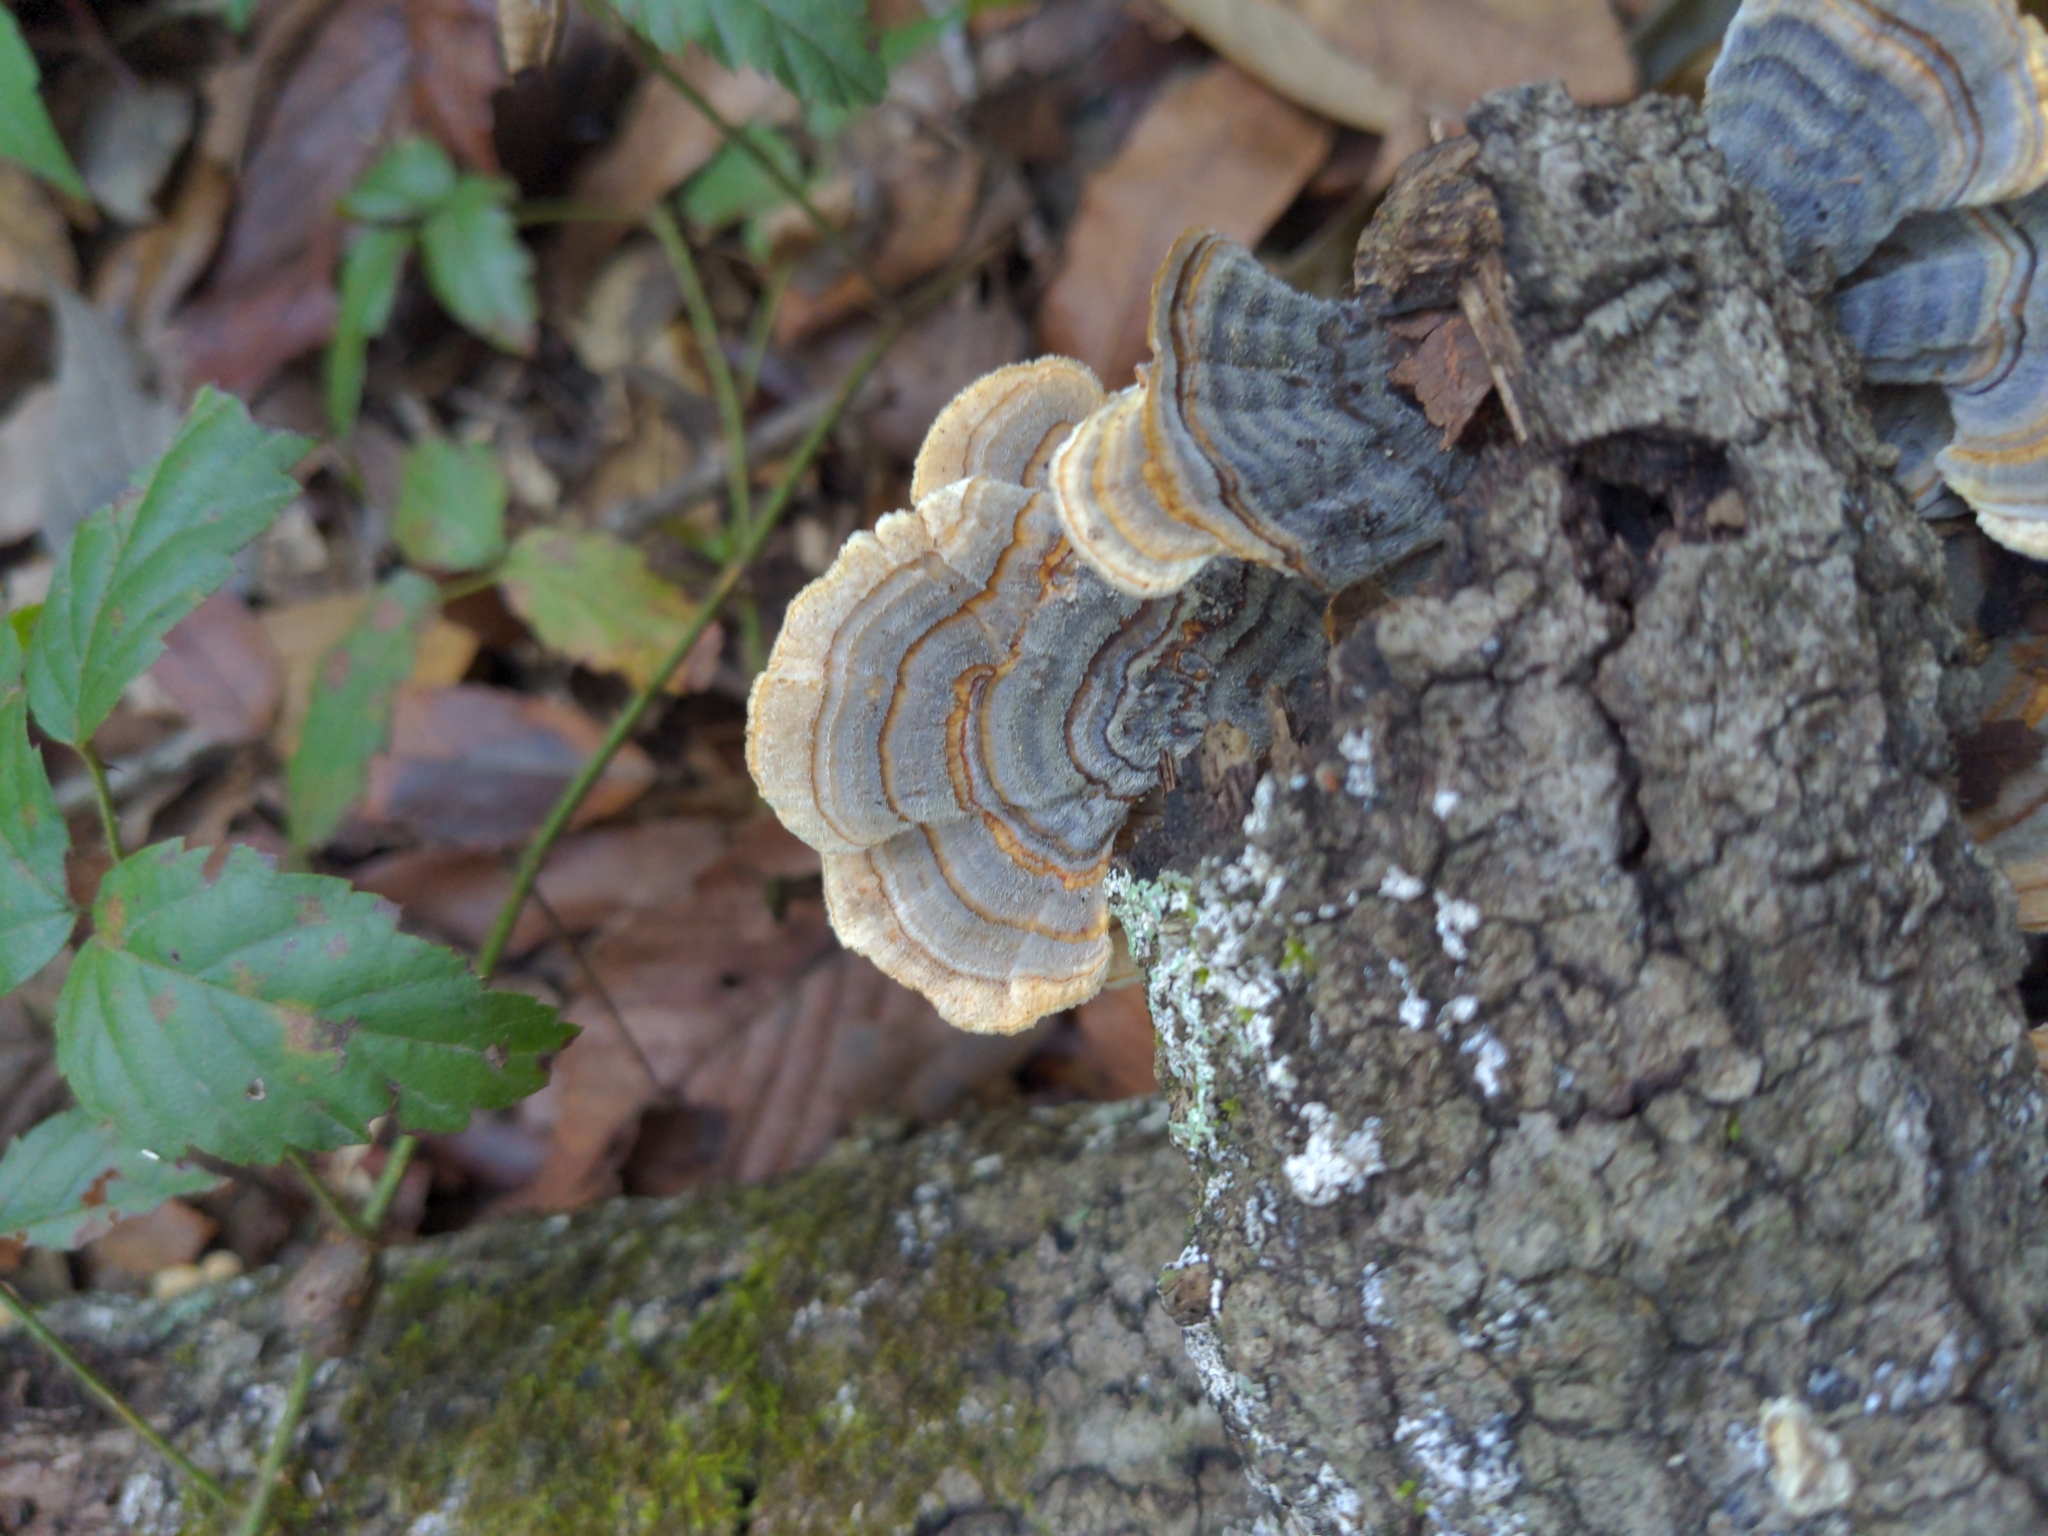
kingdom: Fungi
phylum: Basidiomycota
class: Agaricomycetes
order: Polyporales
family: Polyporaceae
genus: Trametes
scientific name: Trametes versicolor
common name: Turkeytail
